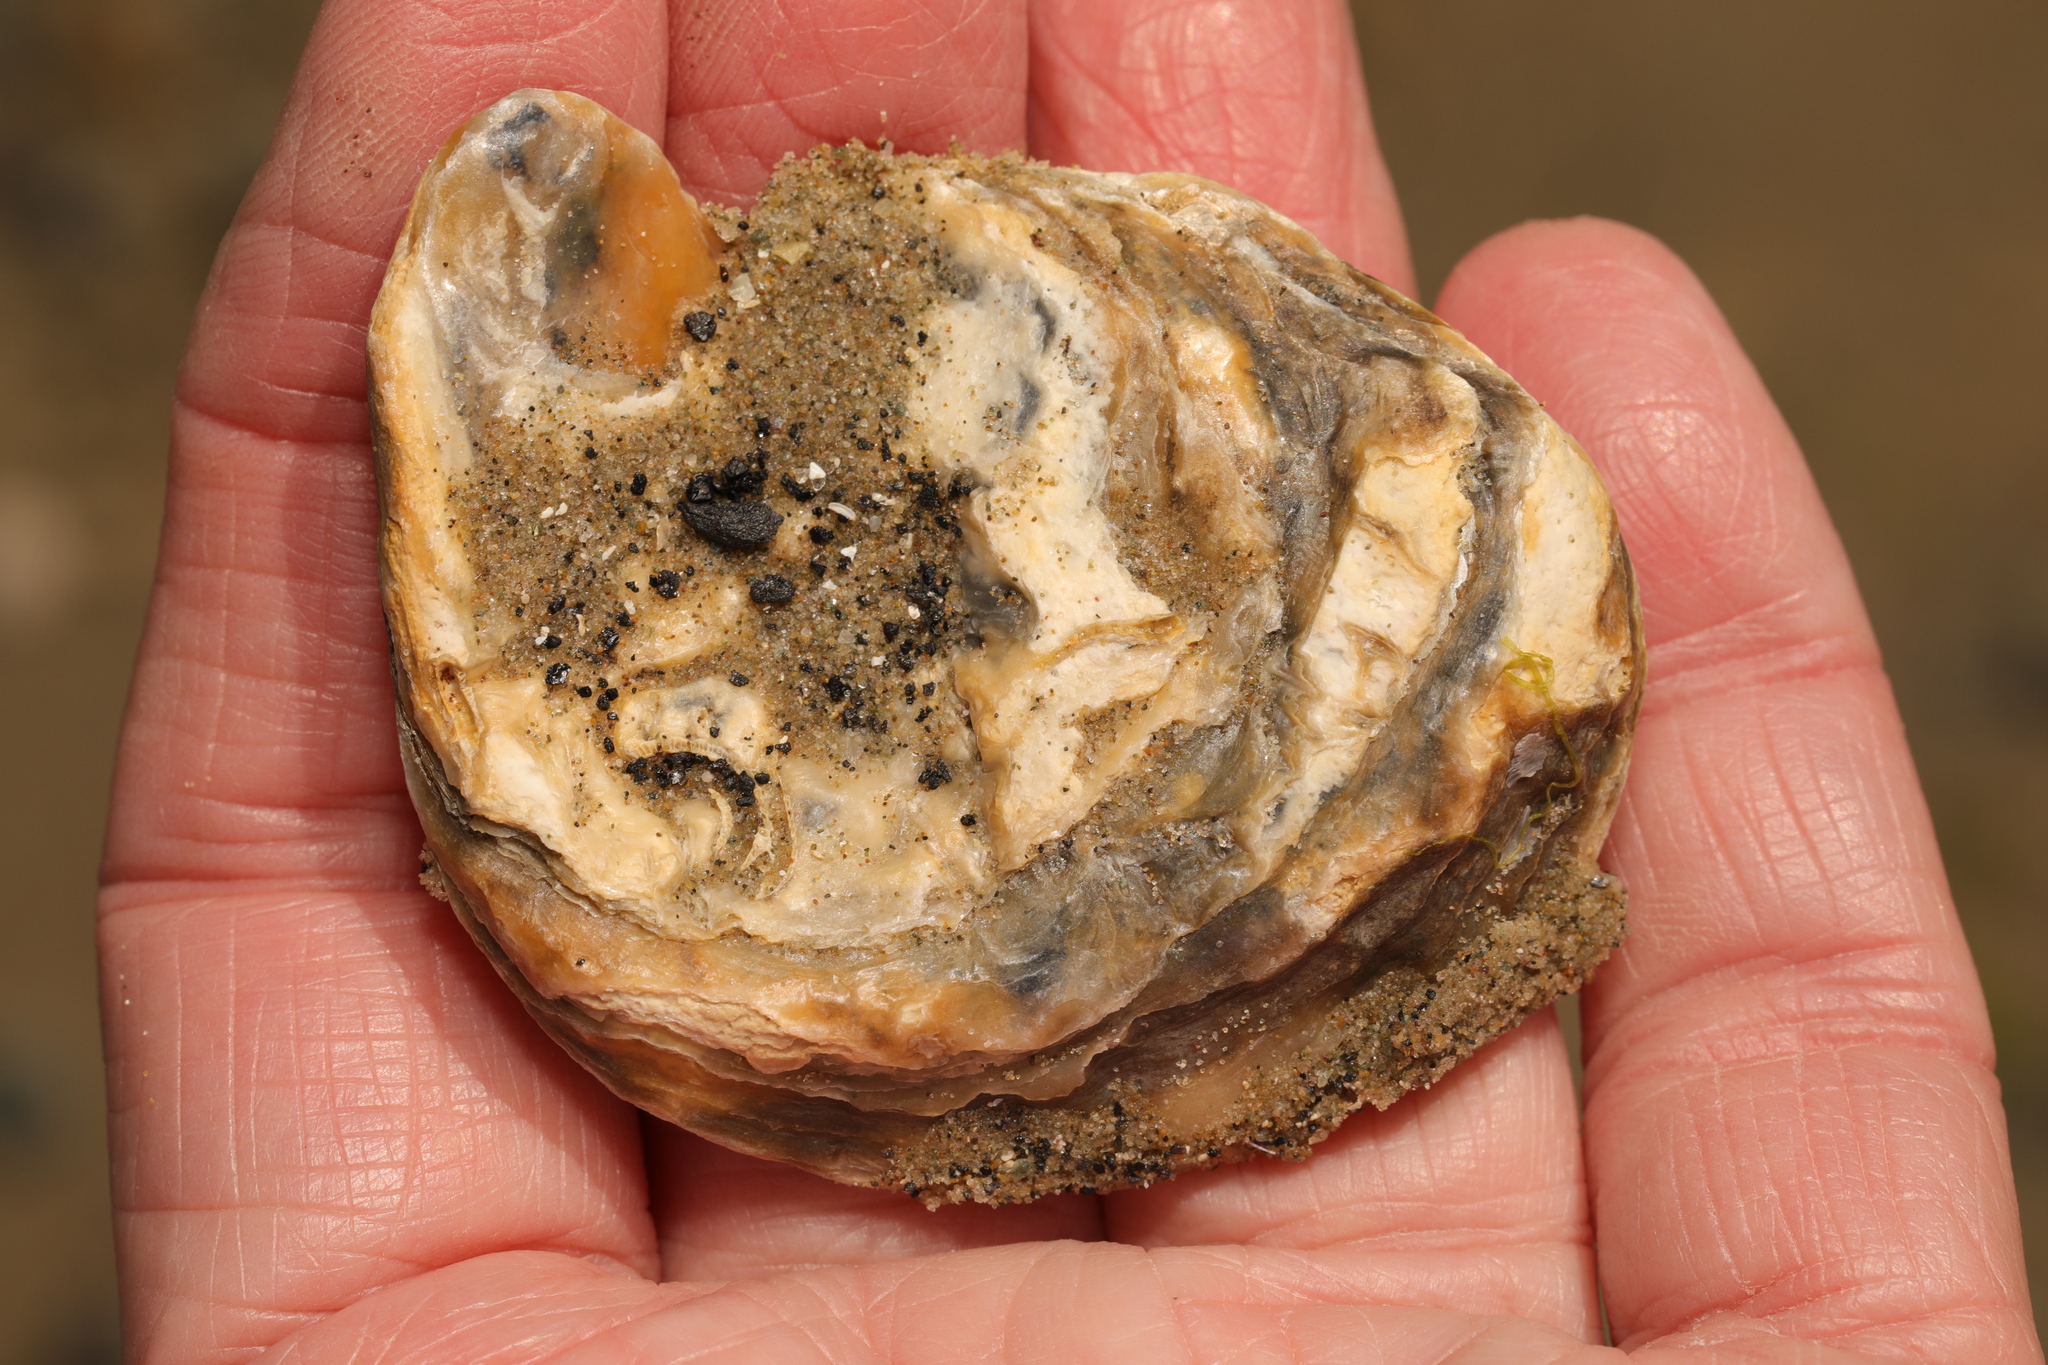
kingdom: Animalia
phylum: Mollusca
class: Bivalvia
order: Ostreida
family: Ostreidae
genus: Ostrea
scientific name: Ostrea edulis
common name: Flat oyster
